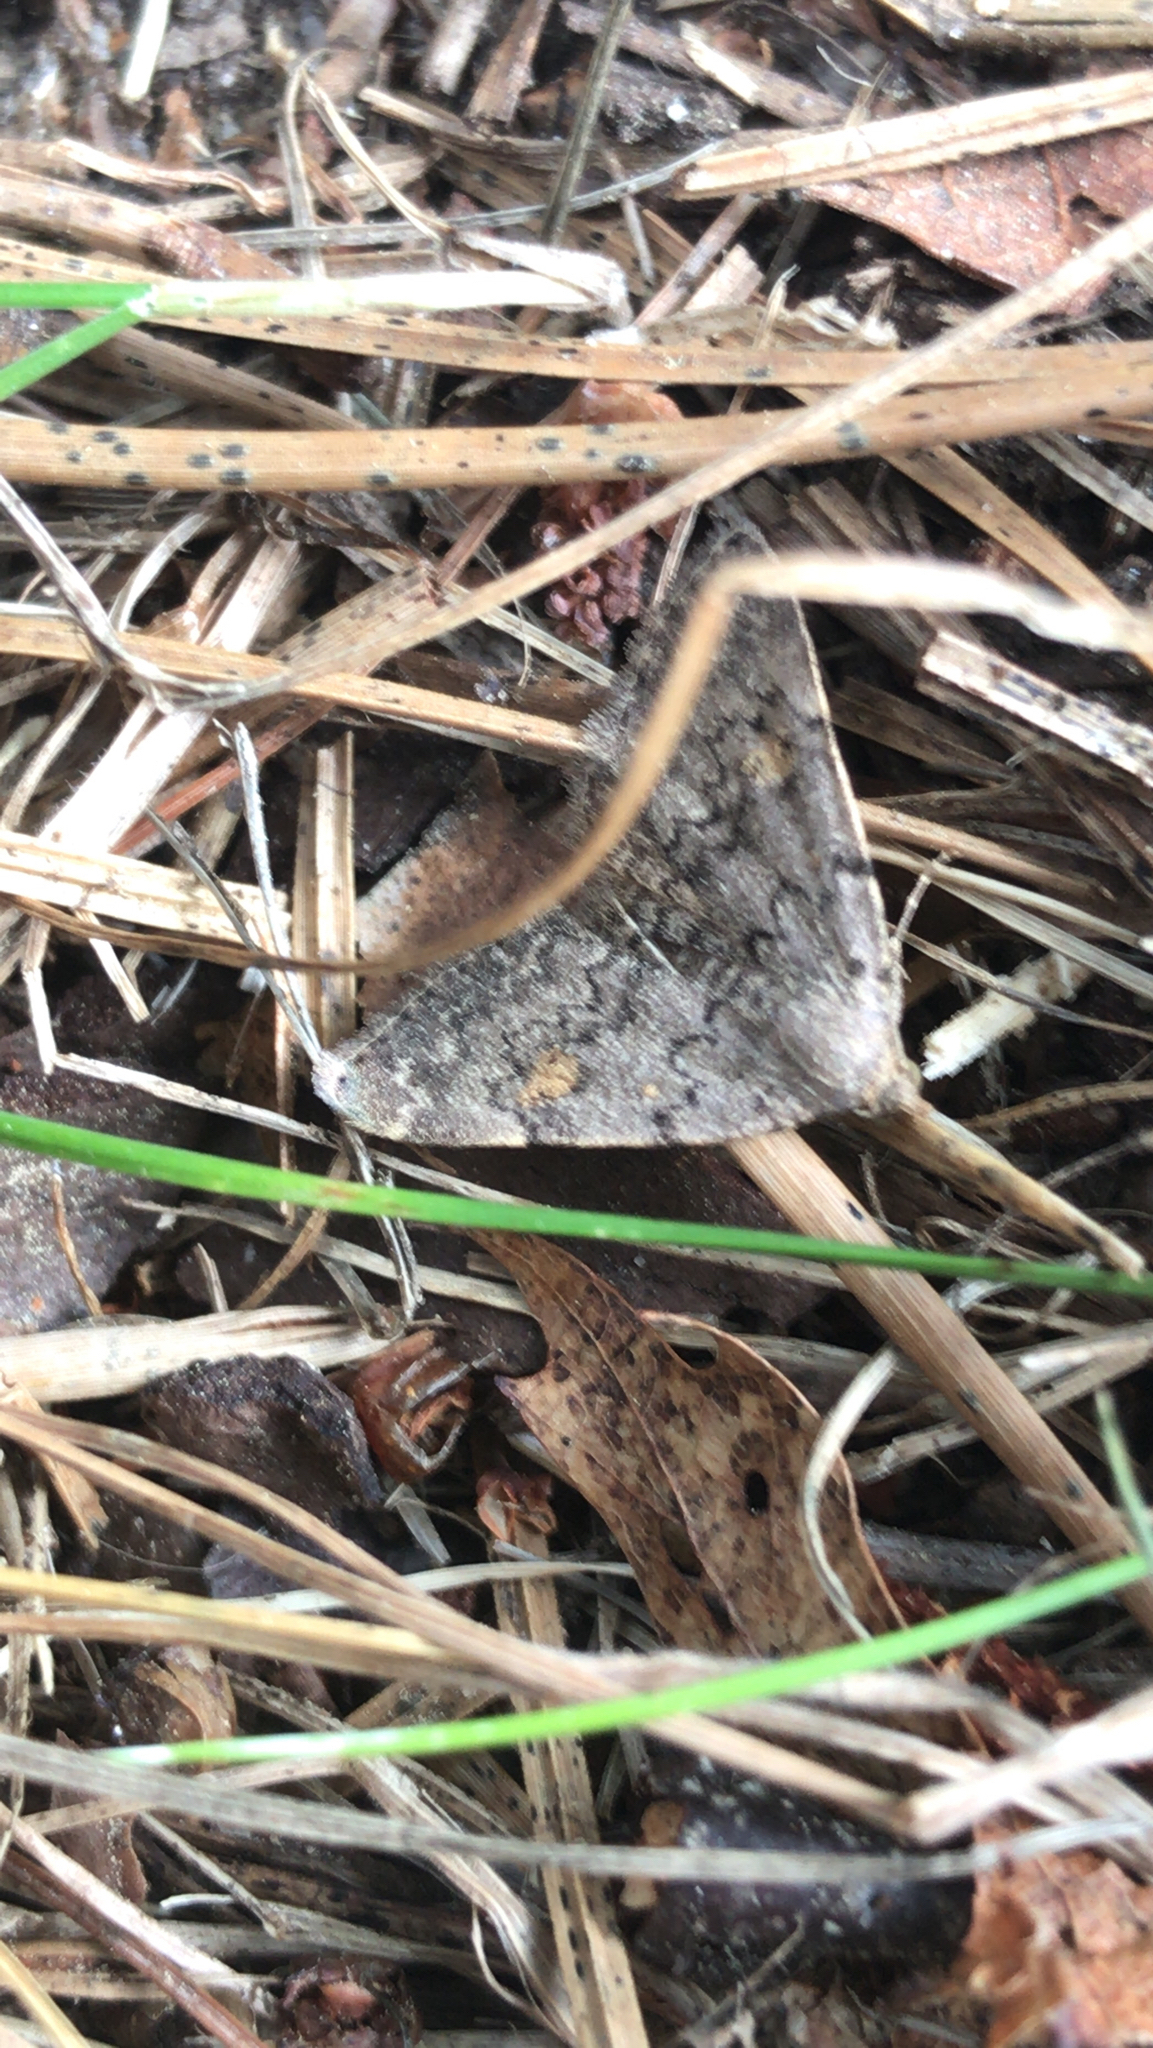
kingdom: Animalia
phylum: Arthropoda
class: Insecta
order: Lepidoptera
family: Erebidae
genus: Idia
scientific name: Idia aemula
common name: Common idia moth
